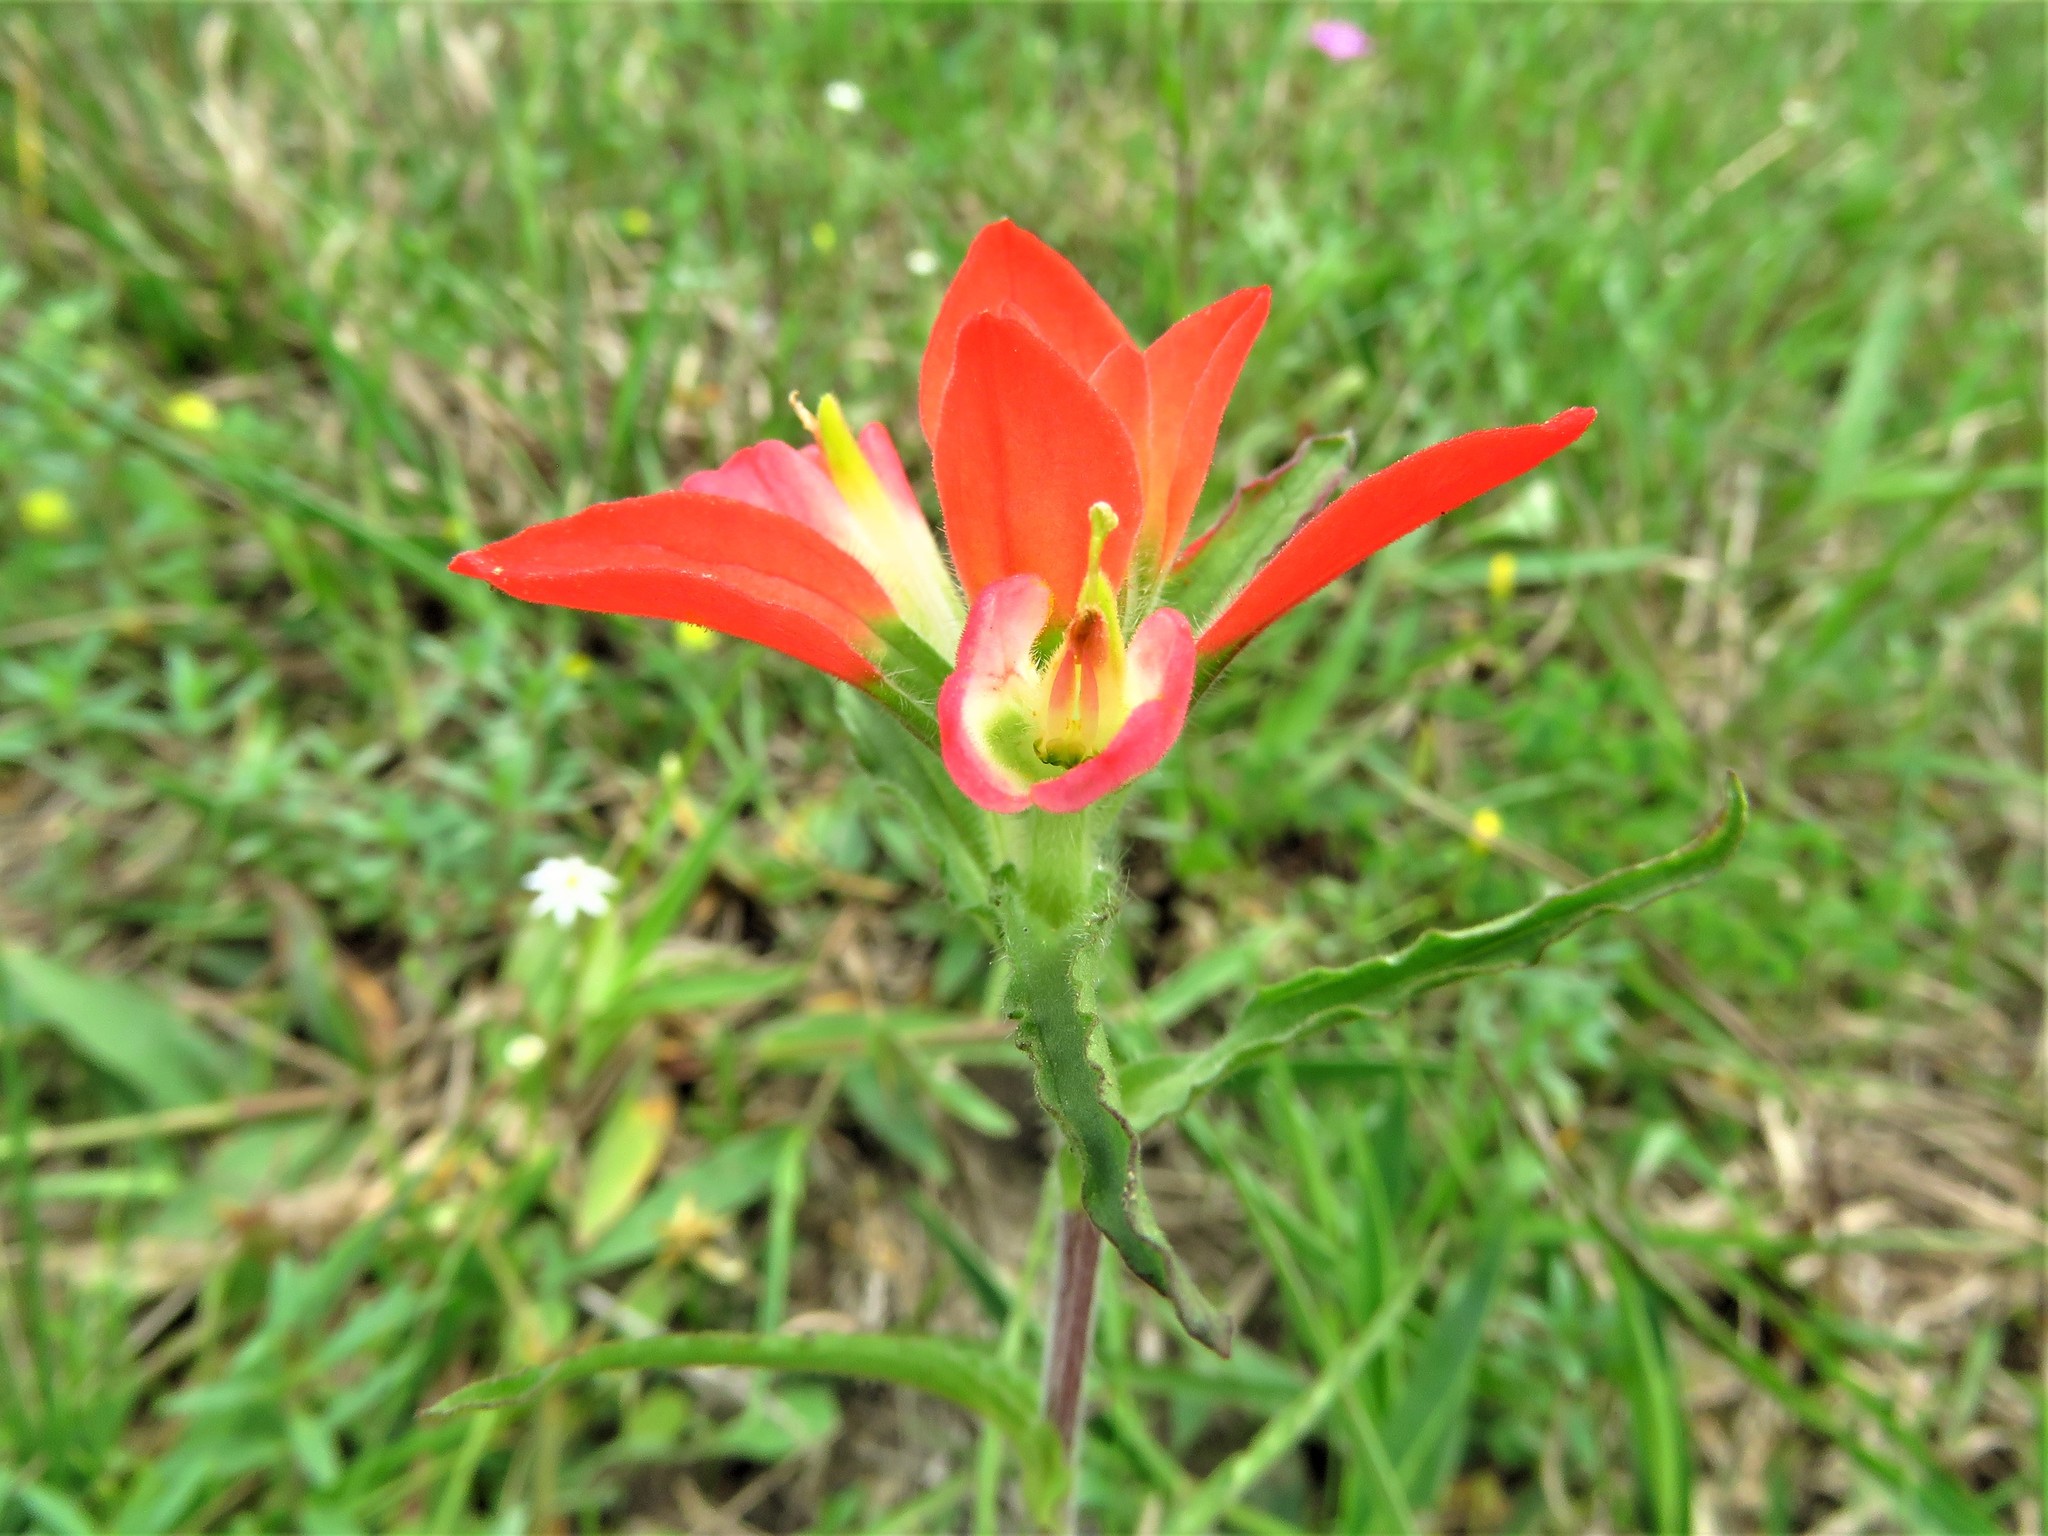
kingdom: Plantae
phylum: Tracheophyta
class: Magnoliopsida
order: Lamiales
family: Orobanchaceae
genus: Castilleja
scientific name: Castilleja indivisa
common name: Texas paintbrush
